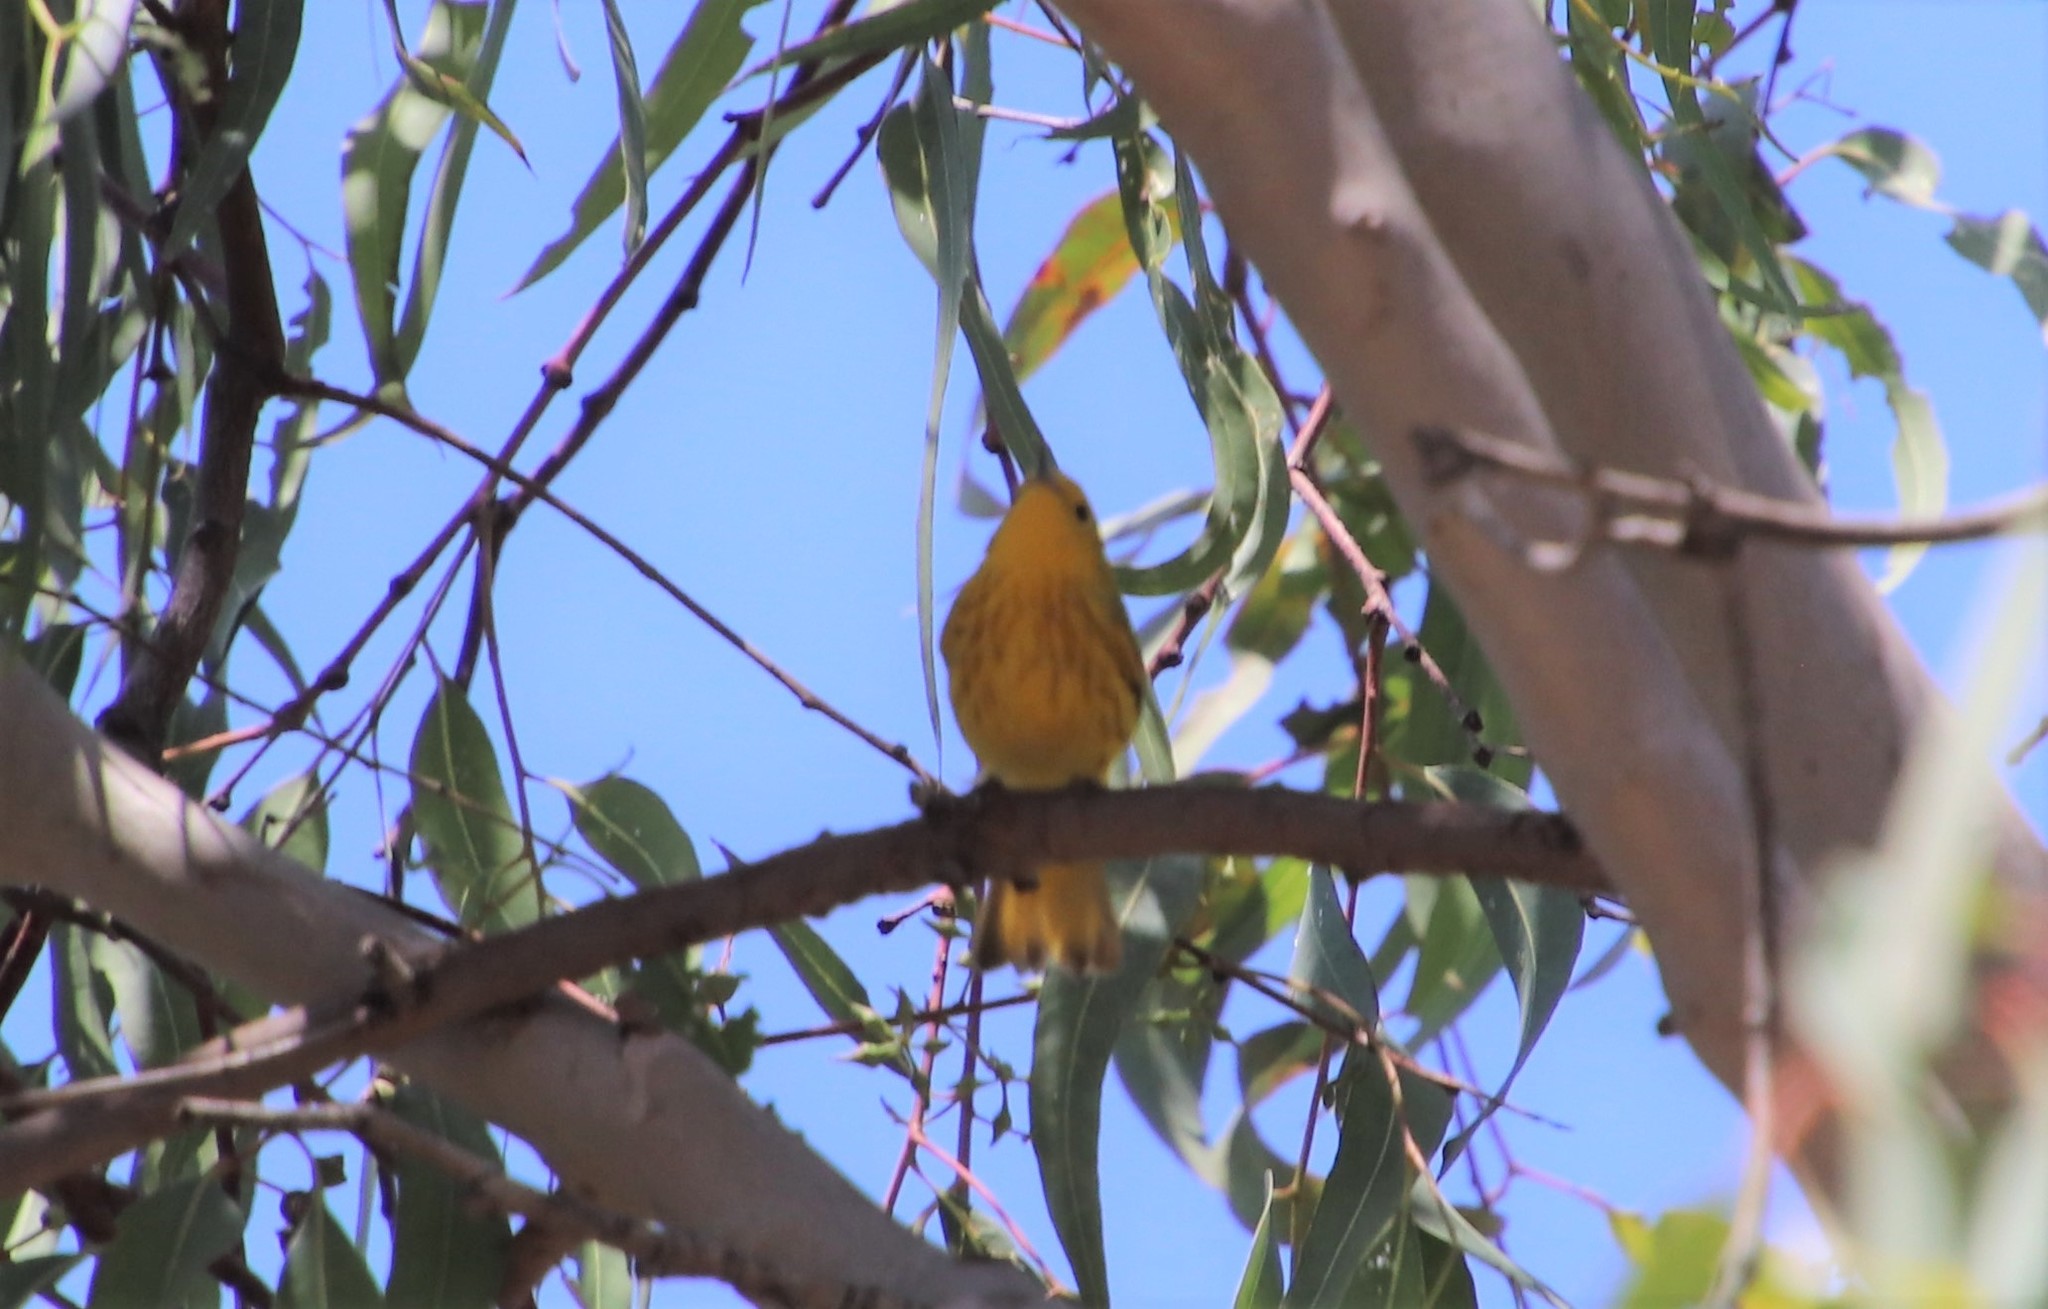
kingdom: Animalia
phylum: Chordata
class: Aves
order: Passeriformes
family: Parulidae
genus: Setophaga
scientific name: Setophaga petechia
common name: Yellow warbler
